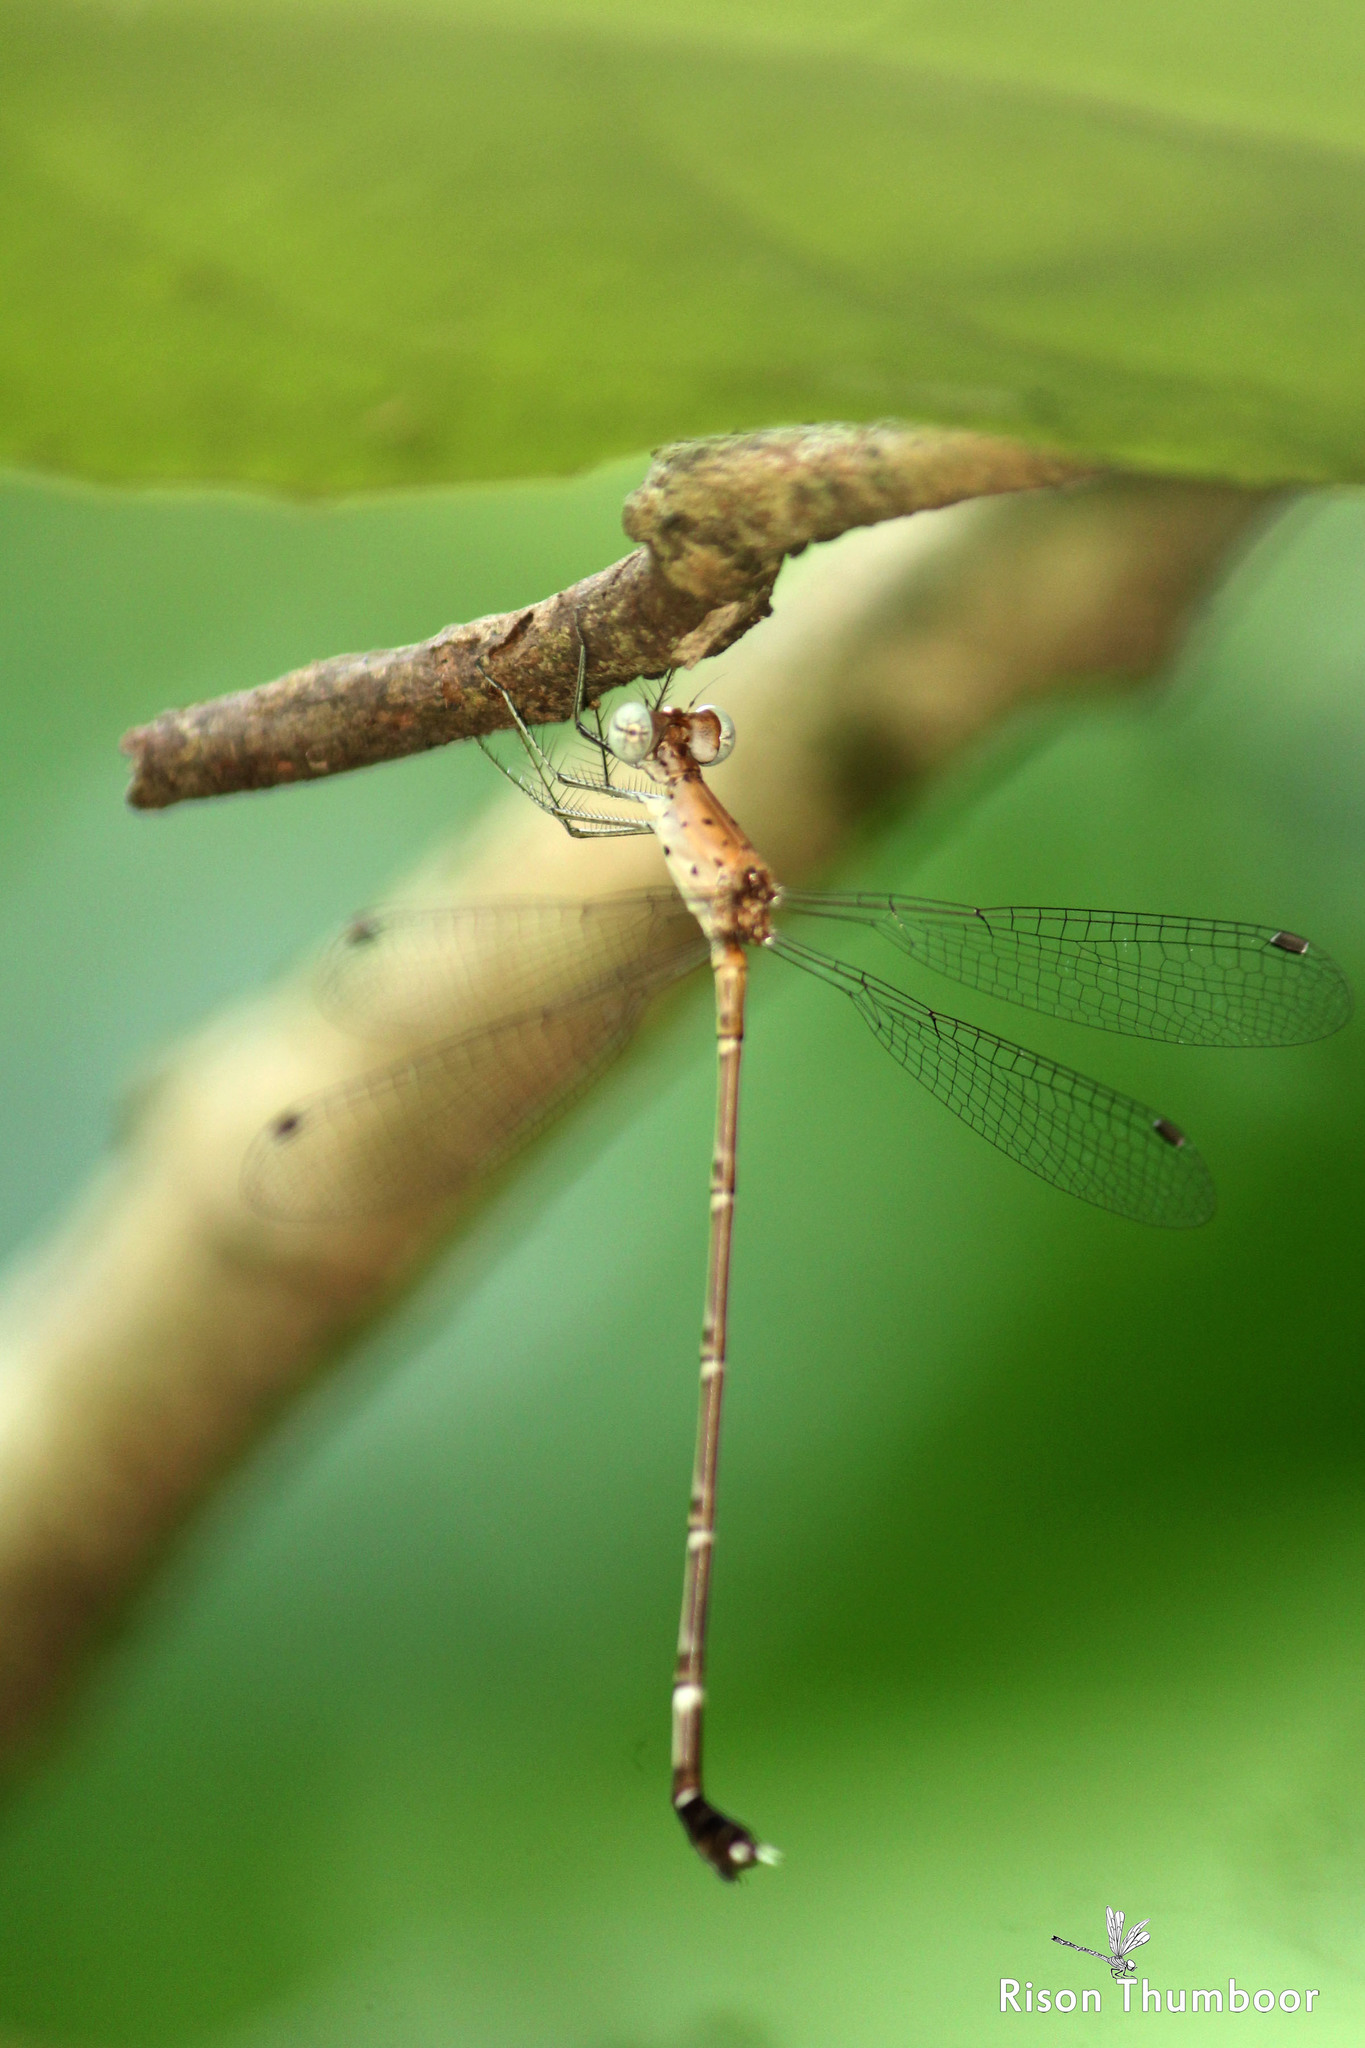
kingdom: Animalia
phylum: Arthropoda
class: Insecta
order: Odonata
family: Lestidae
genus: Platylestes
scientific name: Platylestes platystylus
